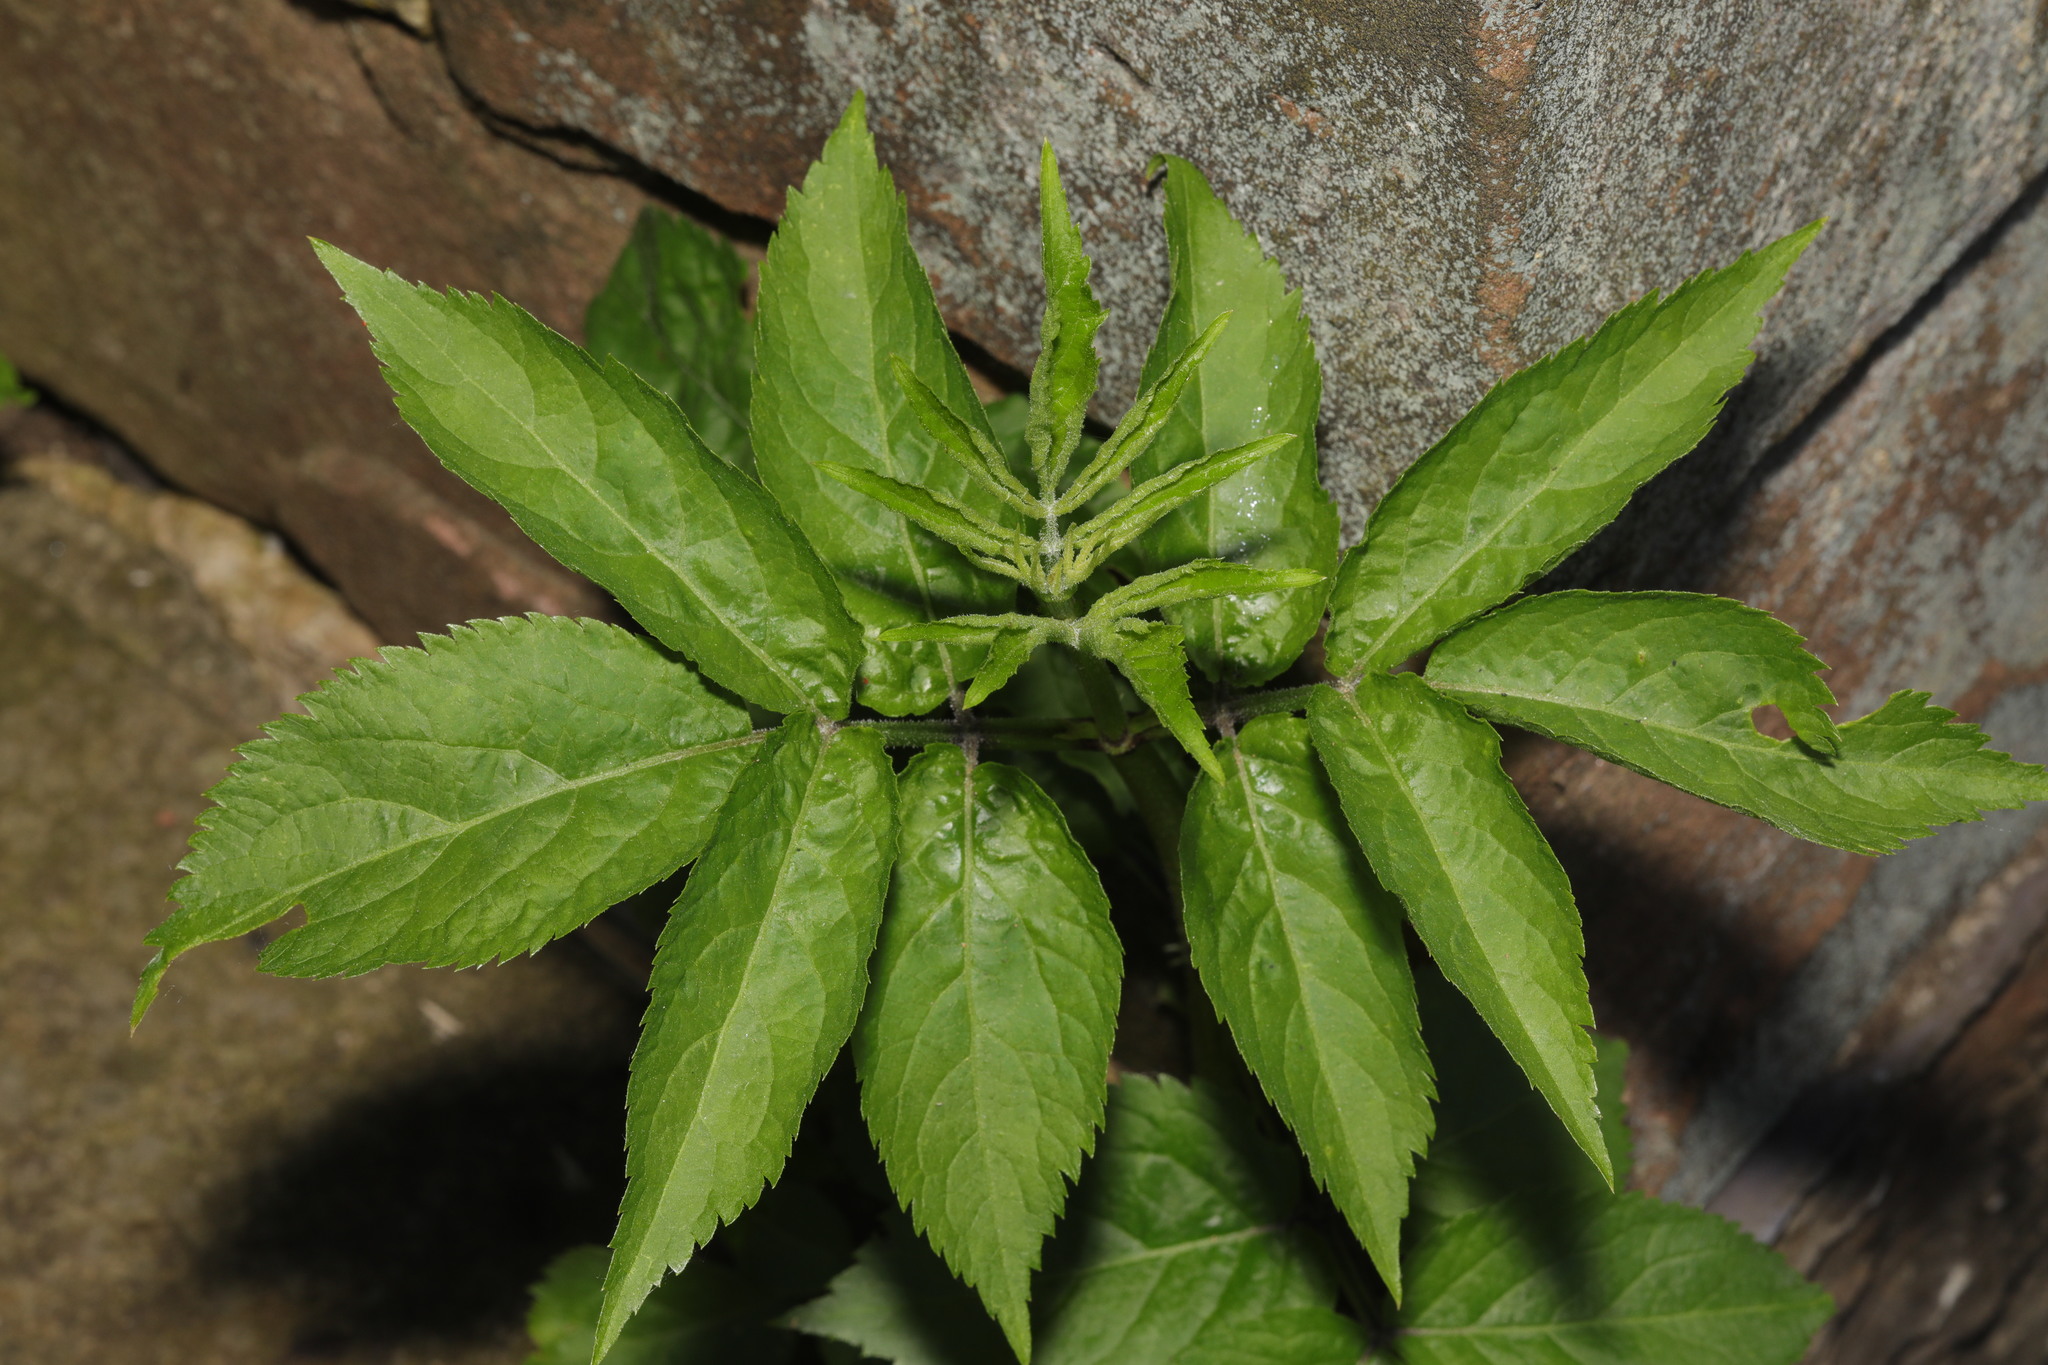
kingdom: Plantae
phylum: Tracheophyta
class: Magnoliopsida
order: Dipsacales
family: Viburnaceae
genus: Sambucus
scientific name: Sambucus nigra
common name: Elder
